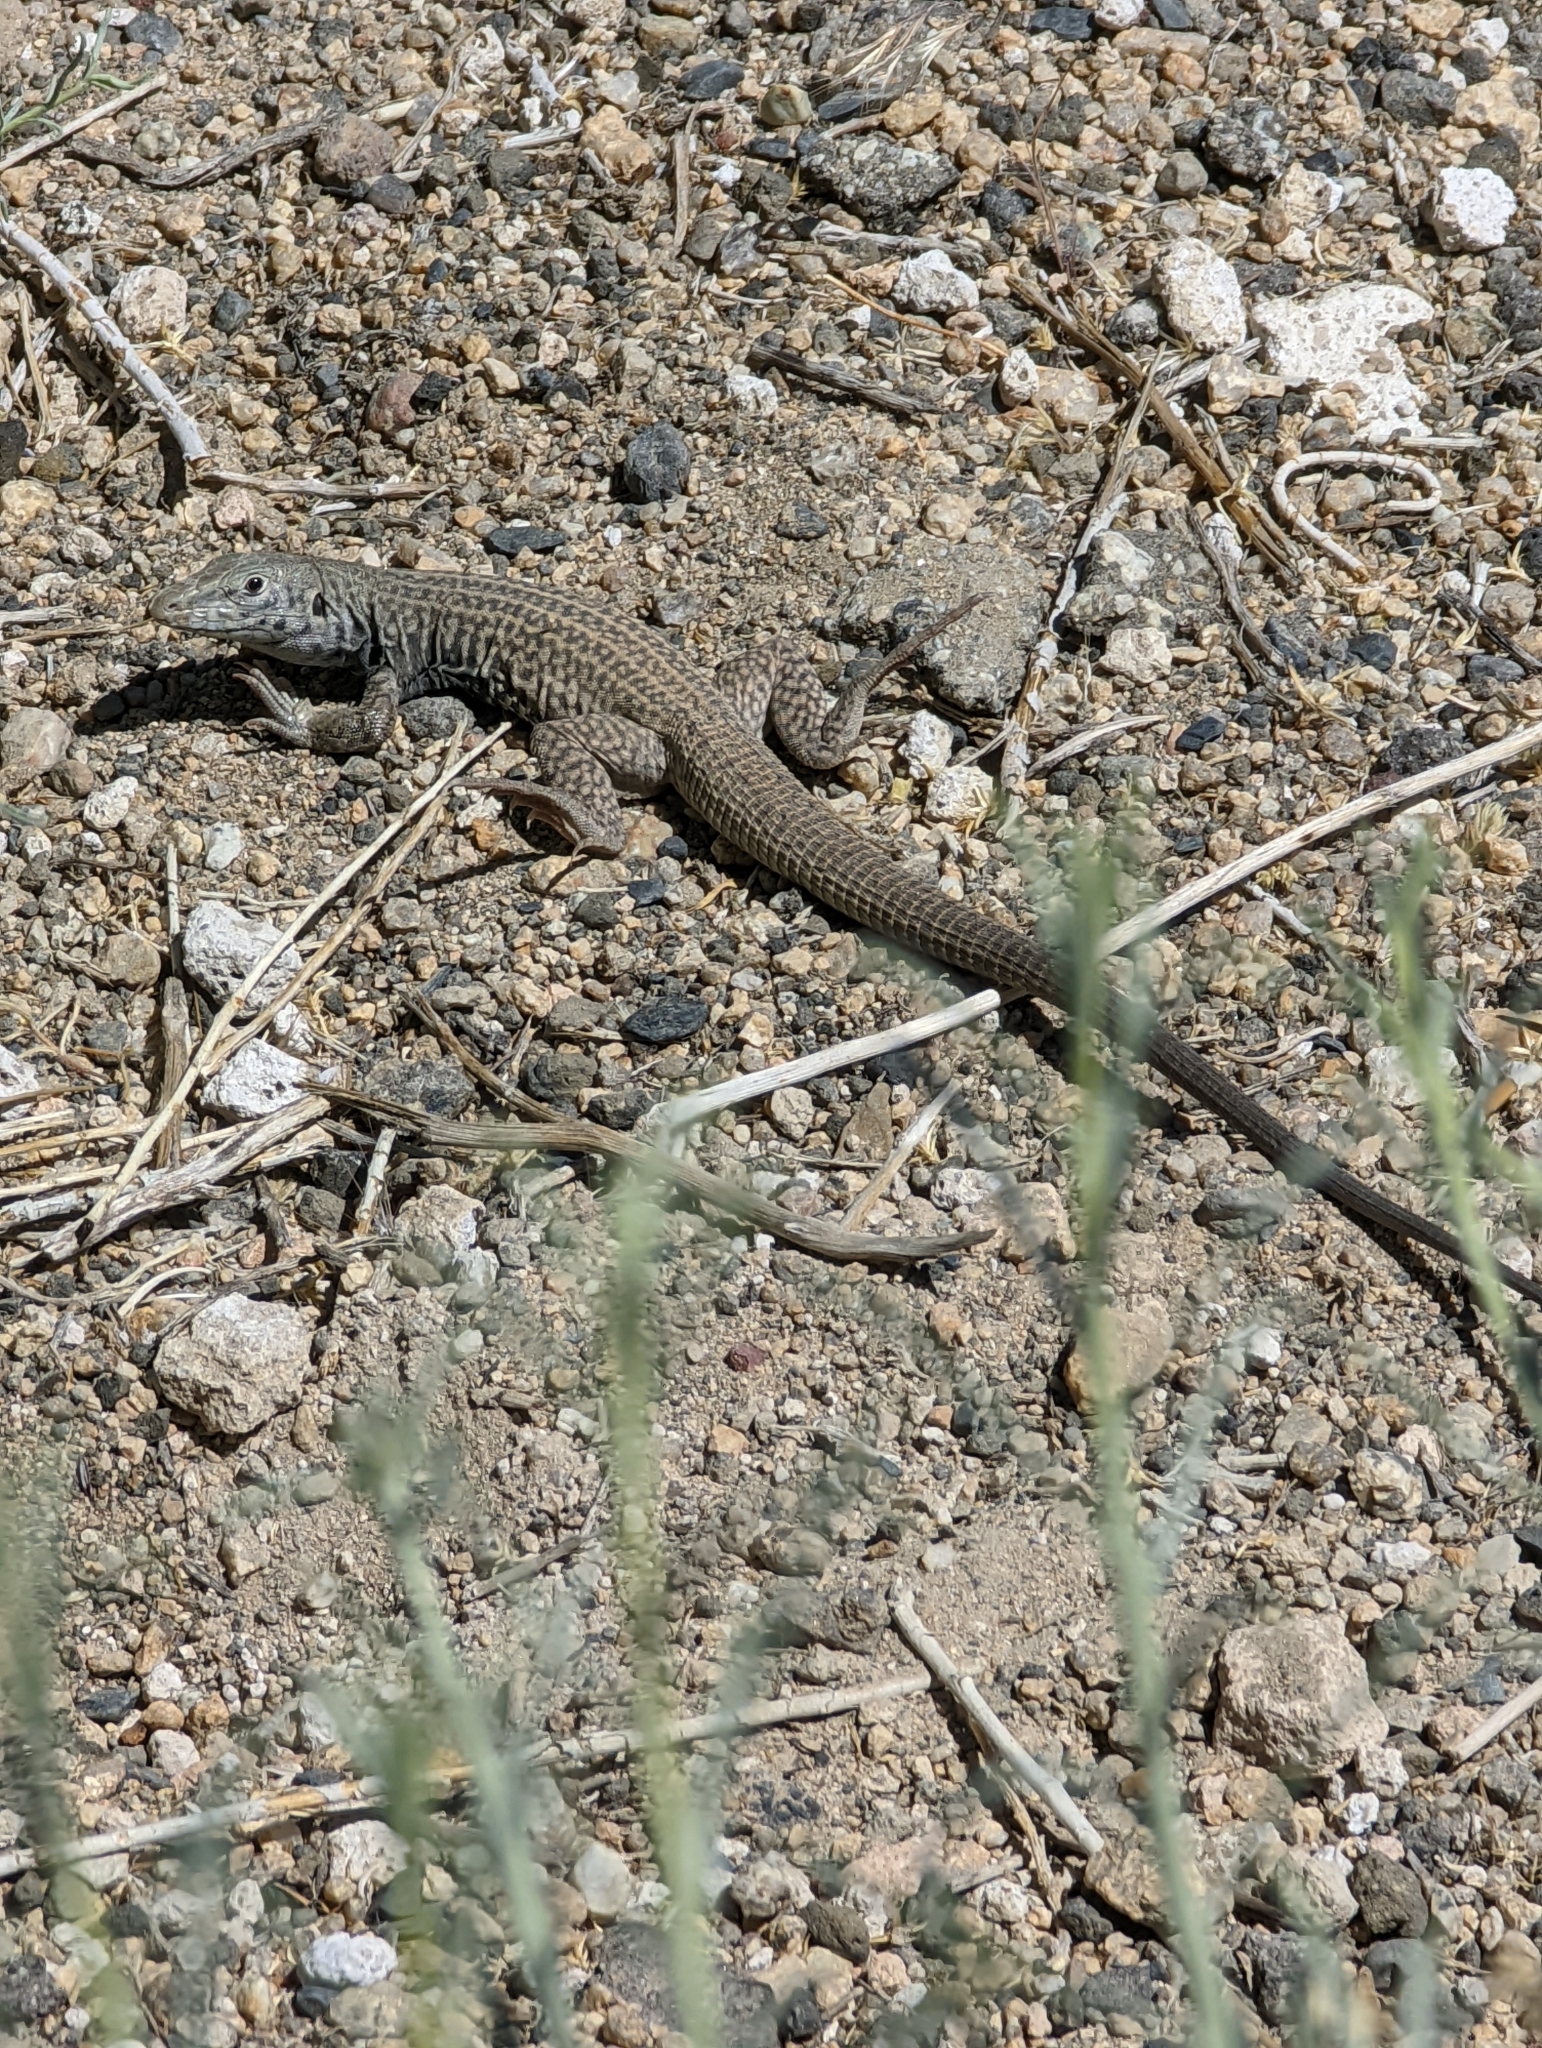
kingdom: Animalia
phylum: Chordata
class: Squamata
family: Teiidae
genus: Aspidoscelis
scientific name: Aspidoscelis tigris
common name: Tiger whiptail
